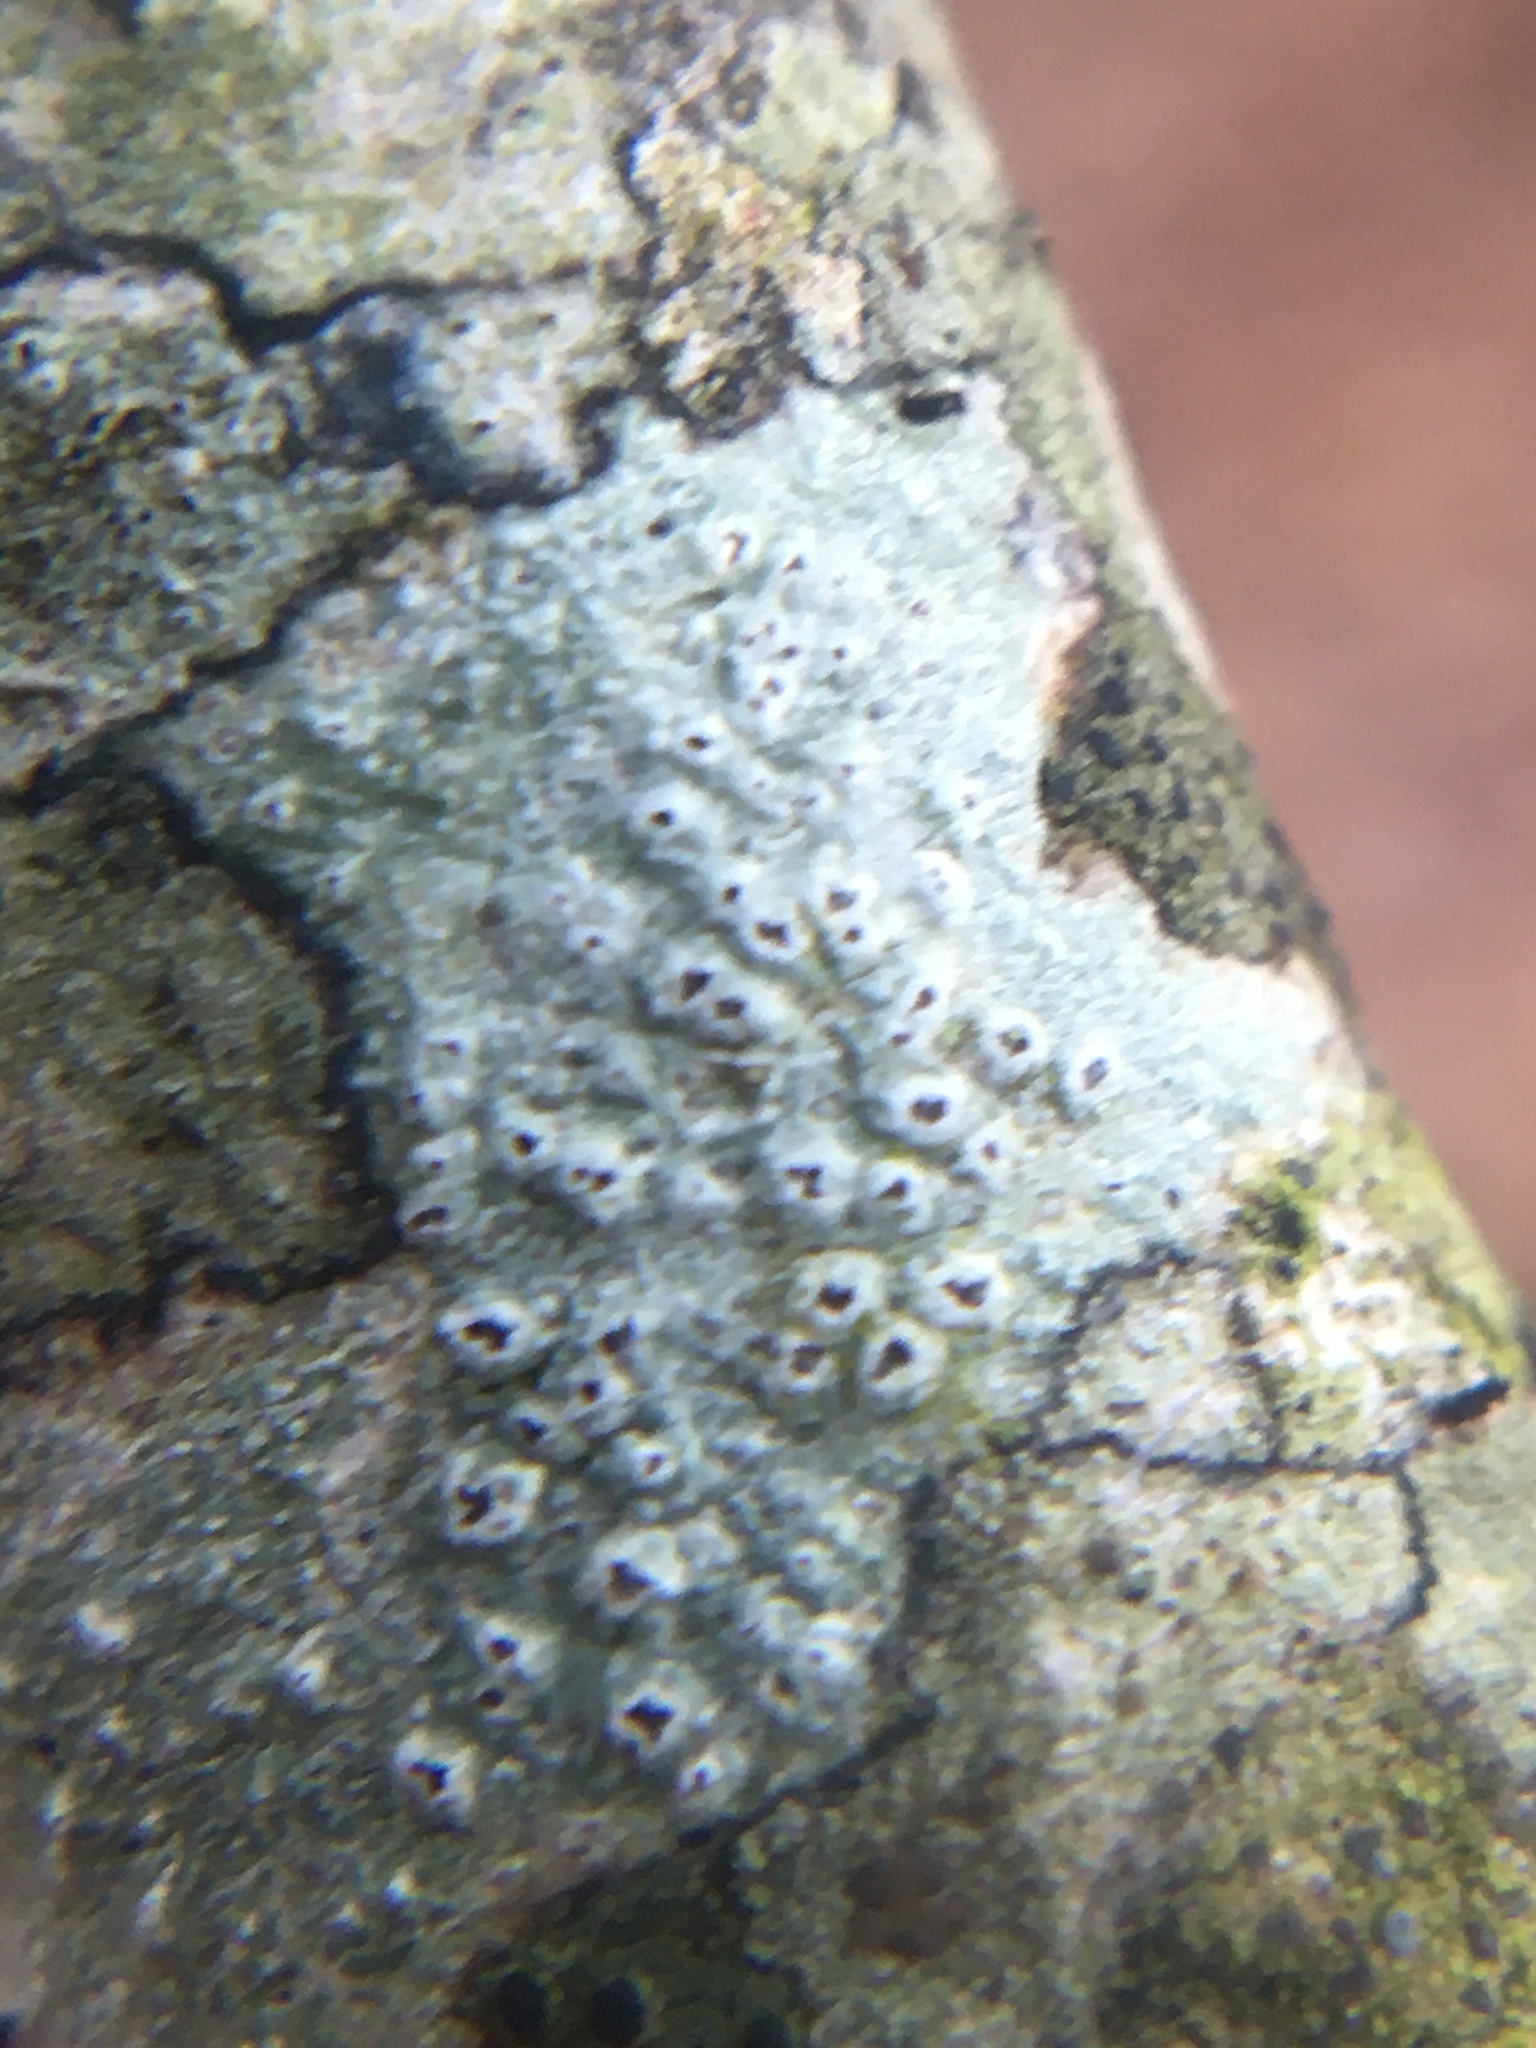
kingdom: Fungi
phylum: Ascomycota
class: Lecanoromycetes
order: Pertusariales
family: Pertusariaceae
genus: Pertusaria
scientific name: Pertusaria pustulata
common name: Branch bumps
